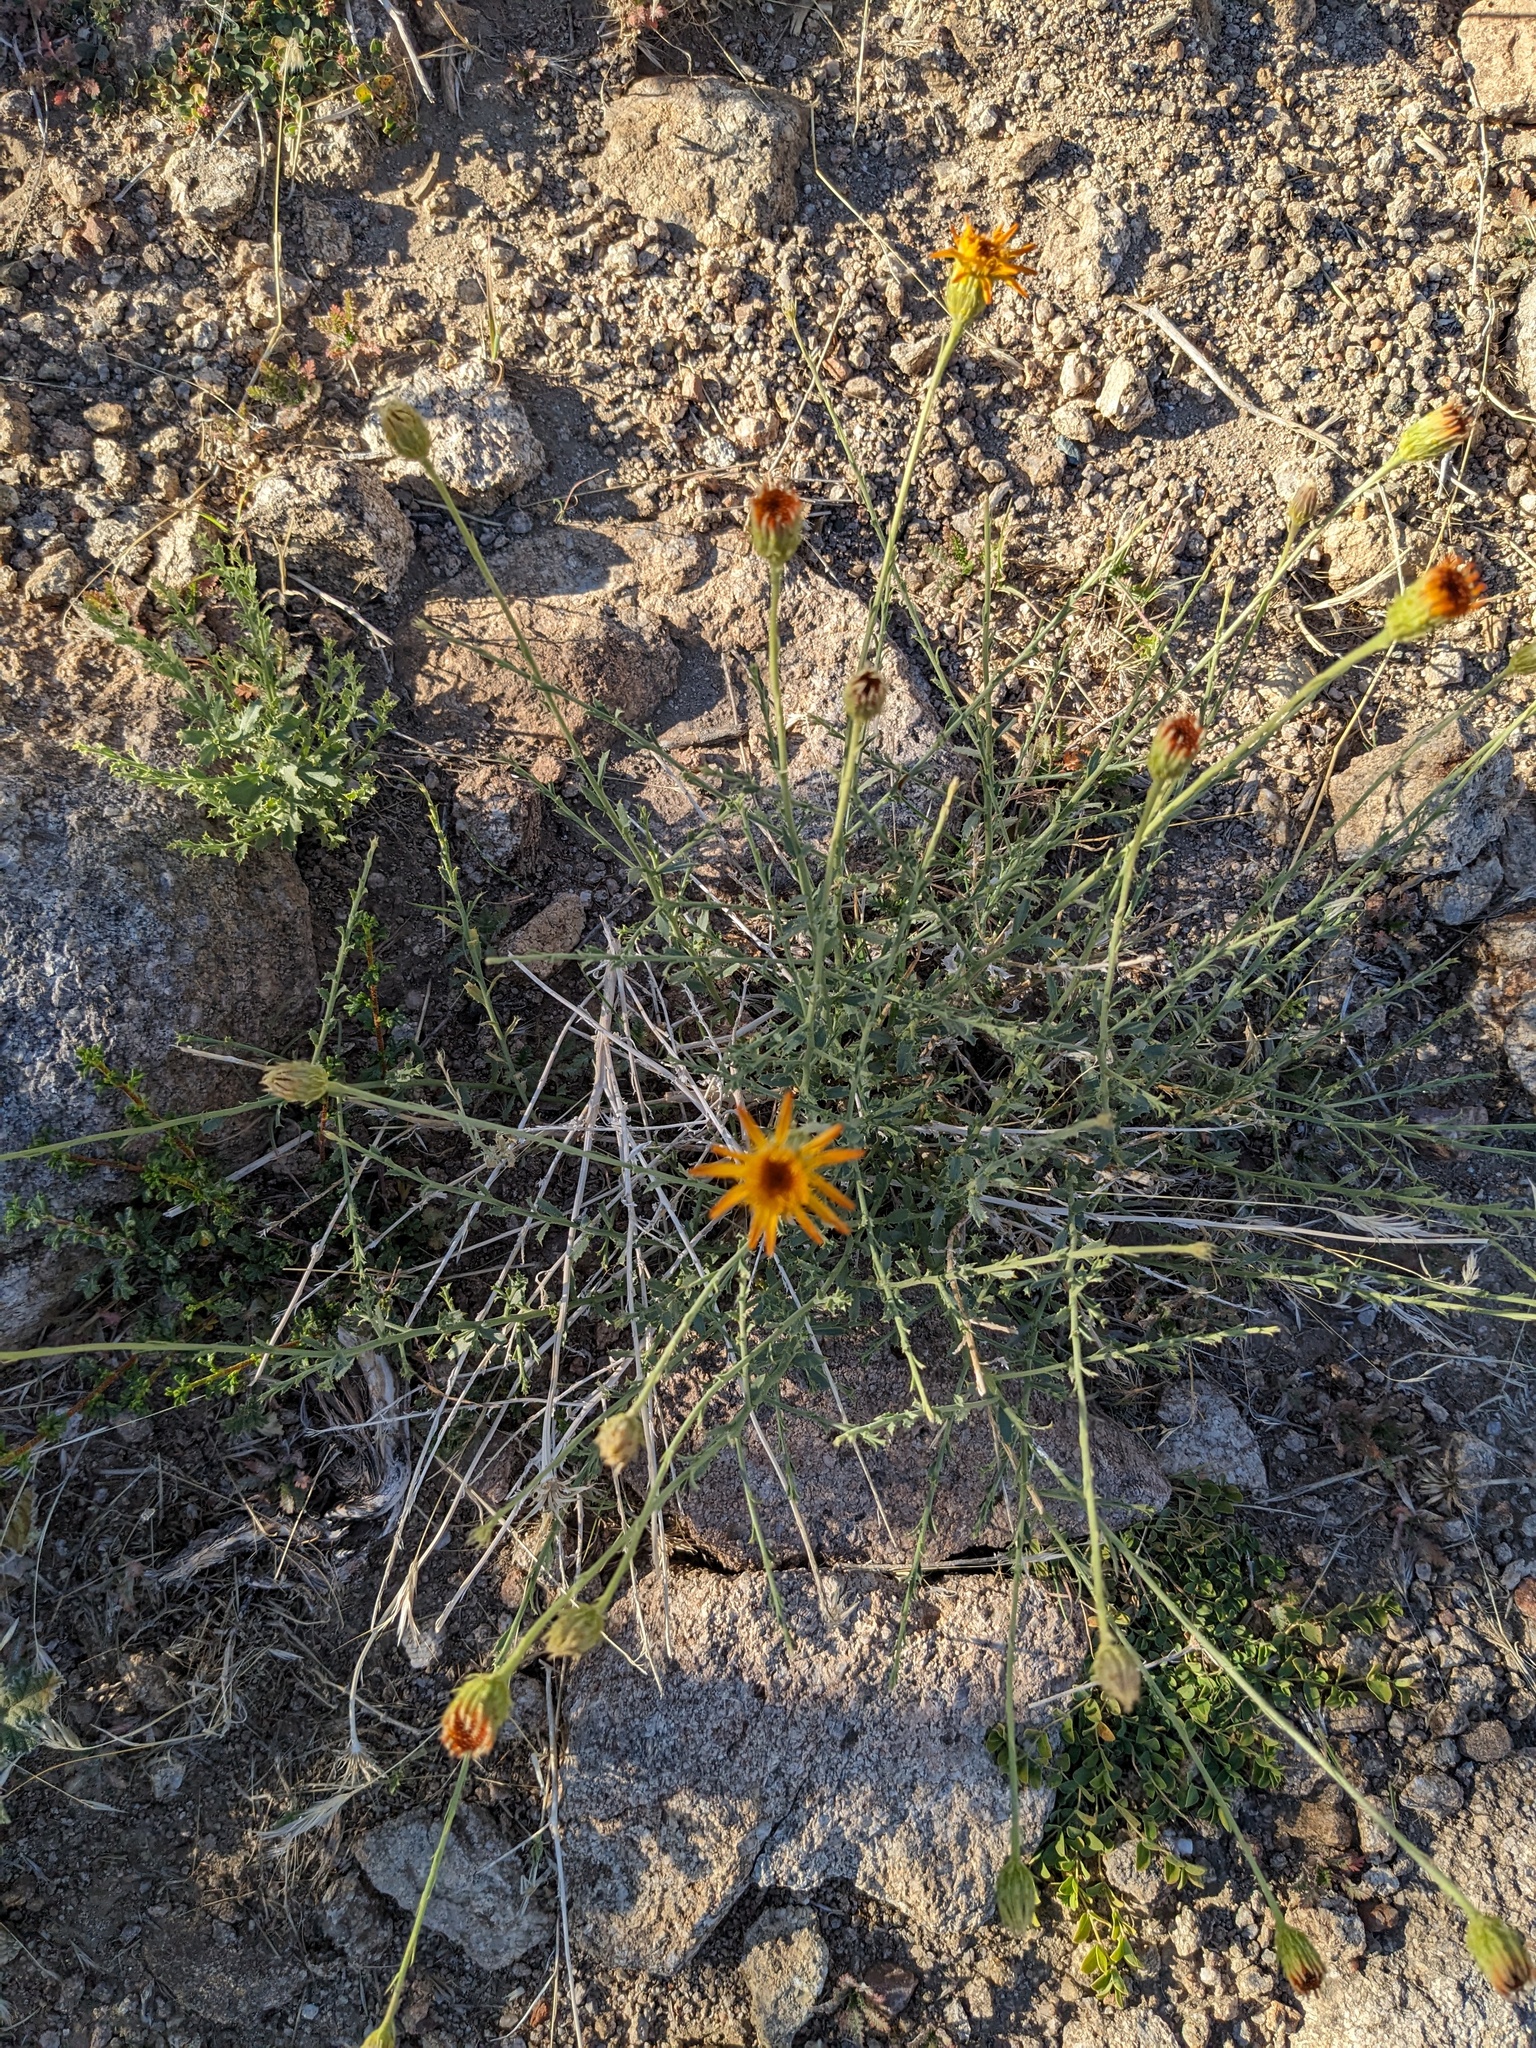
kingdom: Plantae
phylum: Tracheophyta
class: Magnoliopsida
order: Asterales
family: Asteraceae
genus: Adenophyllum
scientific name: Adenophyllum cooperi
